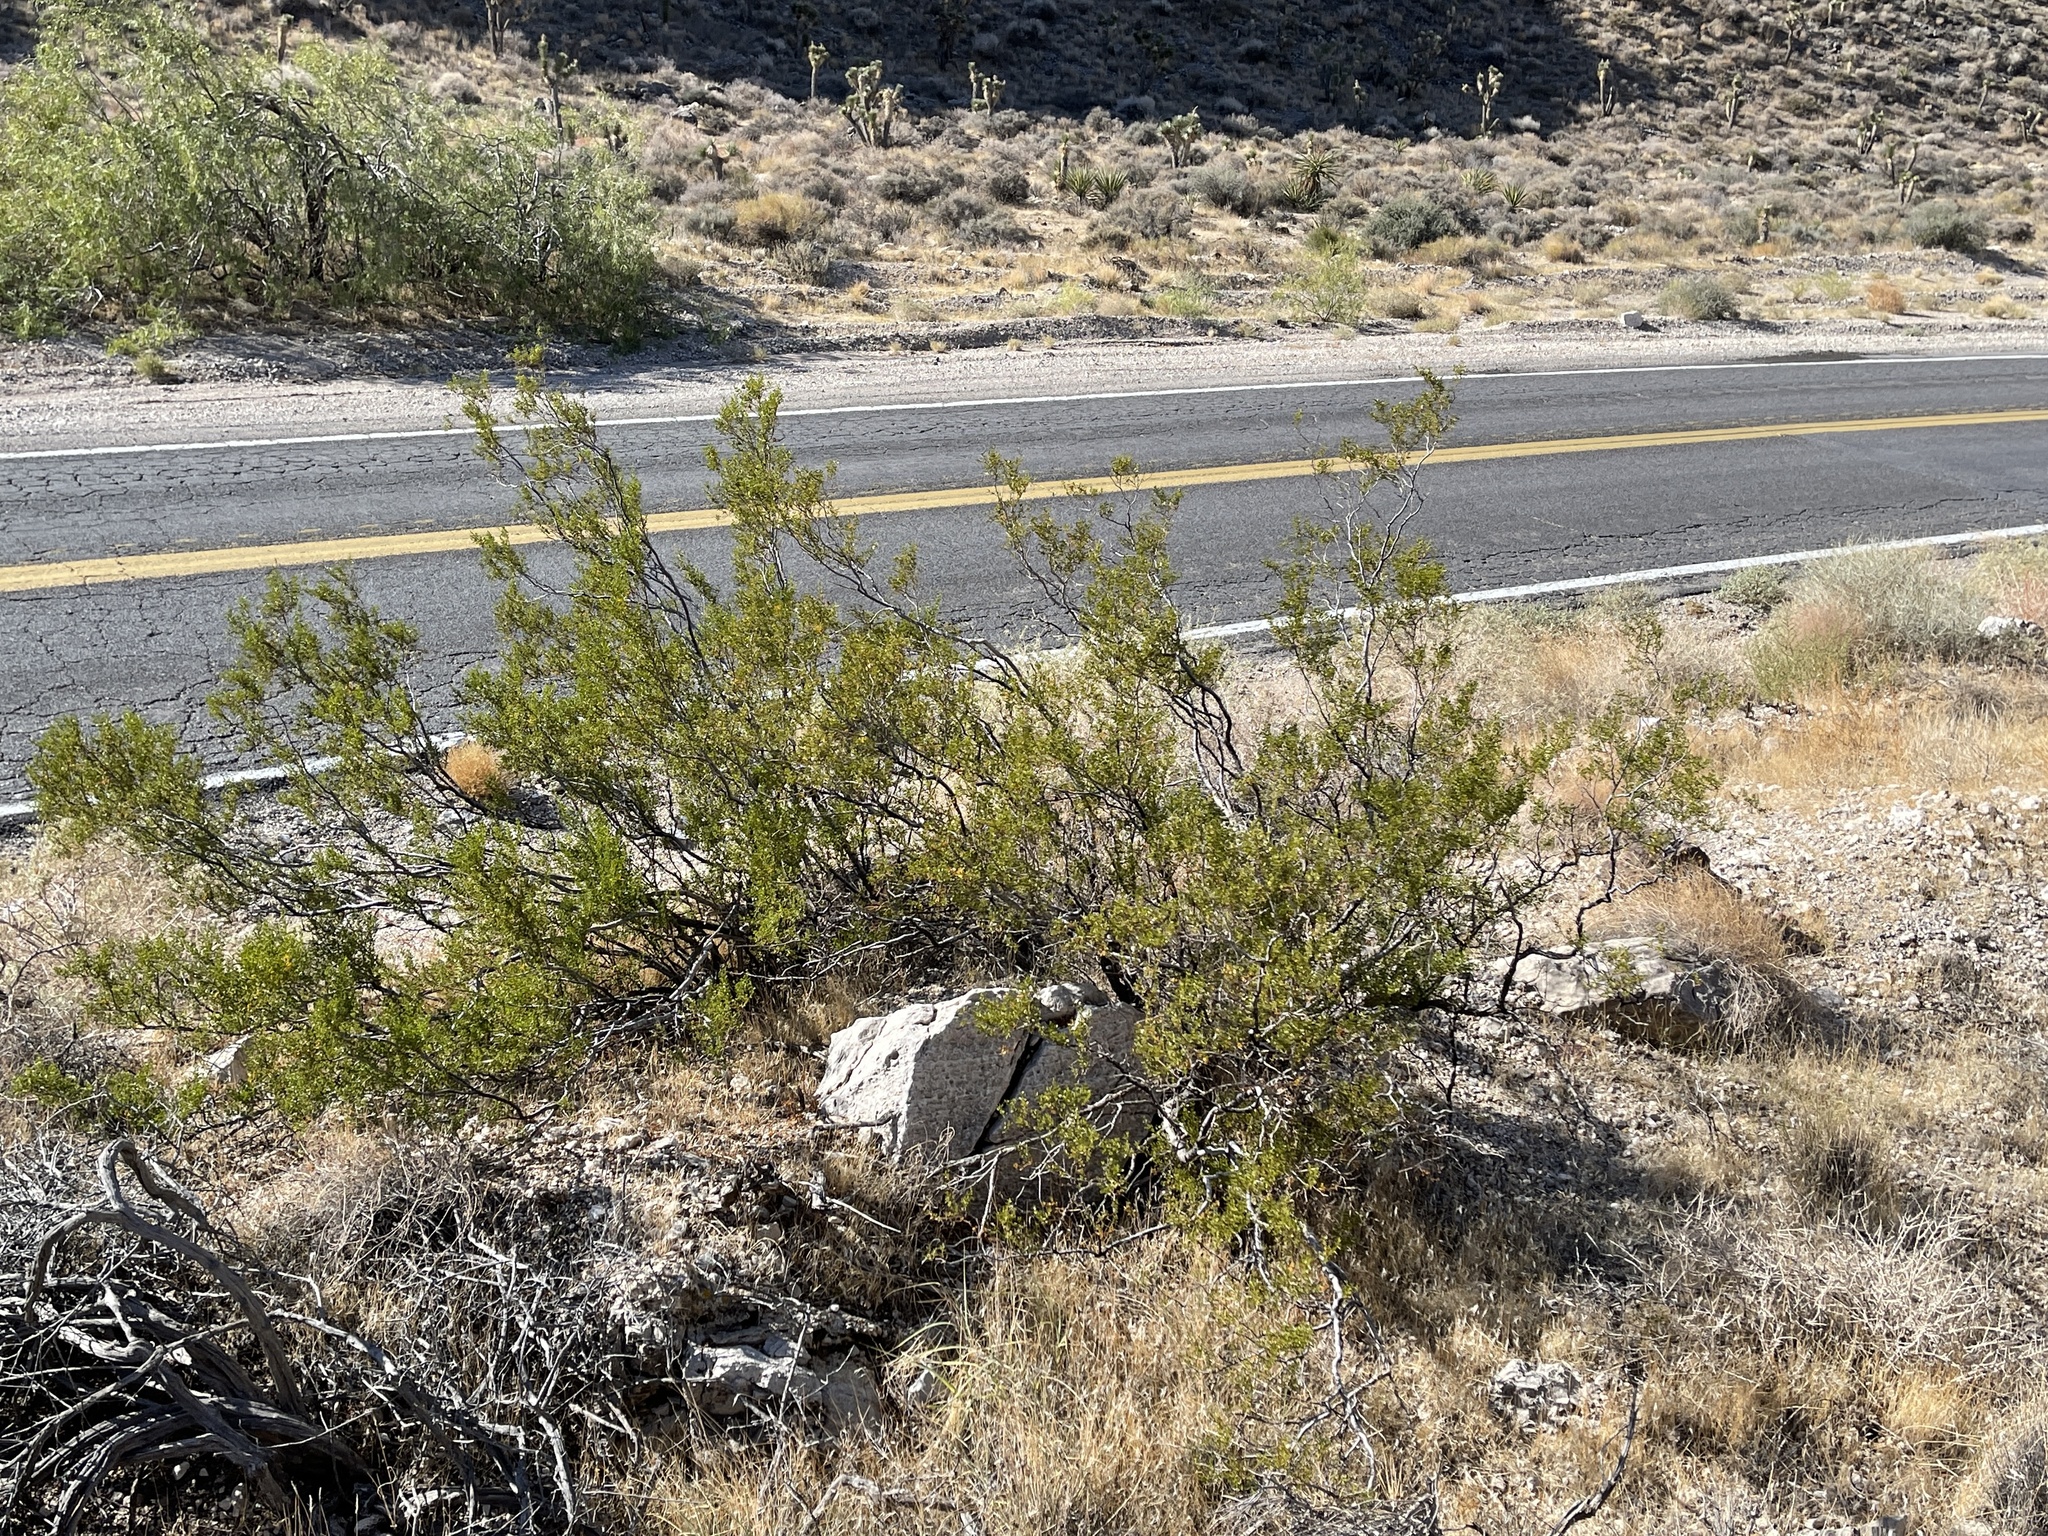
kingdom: Plantae
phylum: Tracheophyta
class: Magnoliopsida
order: Zygophyllales
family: Zygophyllaceae
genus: Larrea
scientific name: Larrea tridentata
